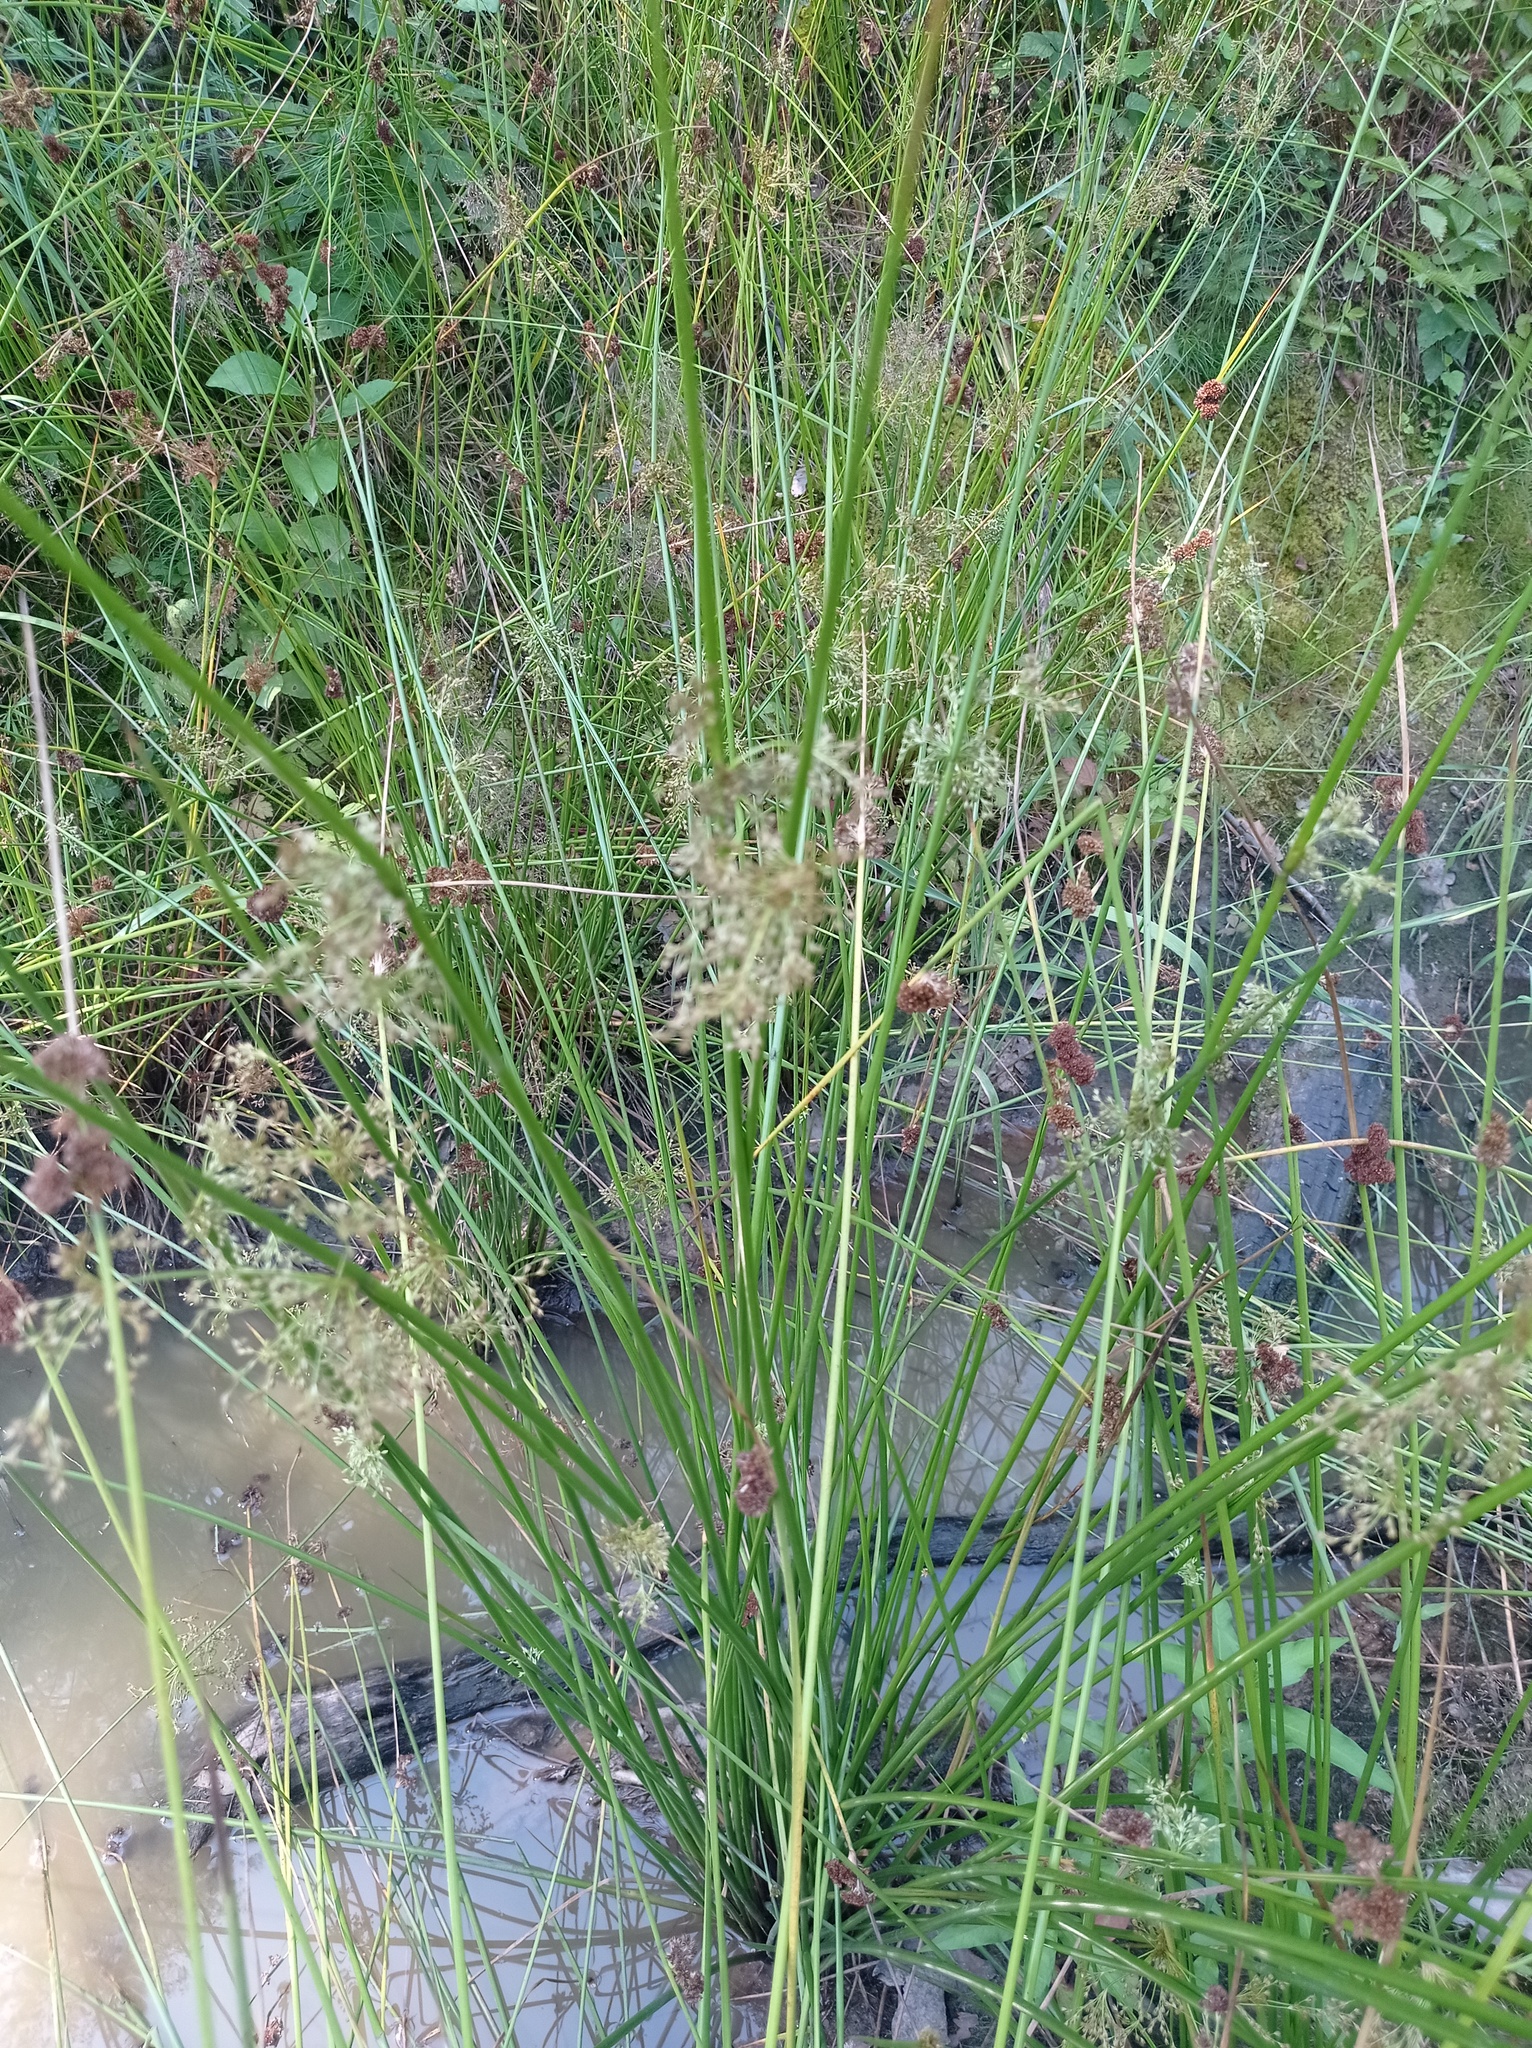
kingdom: Plantae
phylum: Tracheophyta
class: Liliopsida
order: Poales
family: Juncaceae
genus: Juncus
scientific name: Juncus effusus
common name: Soft rush
